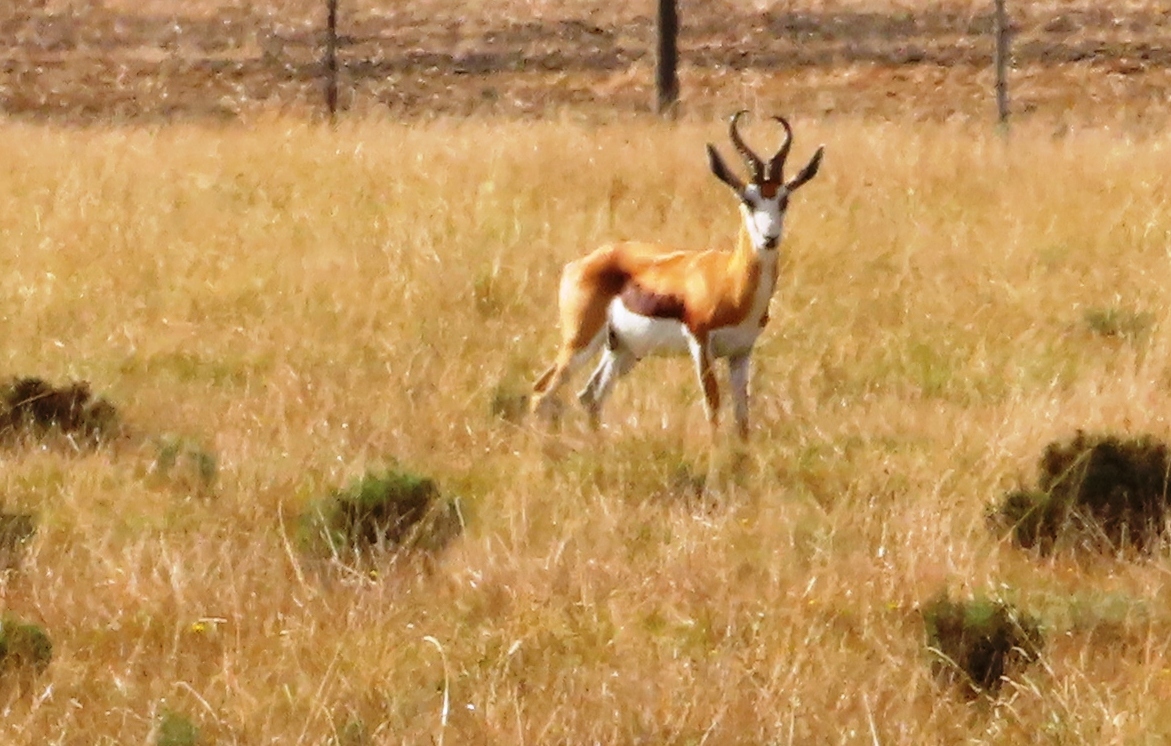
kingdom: Animalia
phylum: Chordata
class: Mammalia
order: Artiodactyla
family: Bovidae
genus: Antidorcas
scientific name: Antidorcas marsupialis
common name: Springbok
